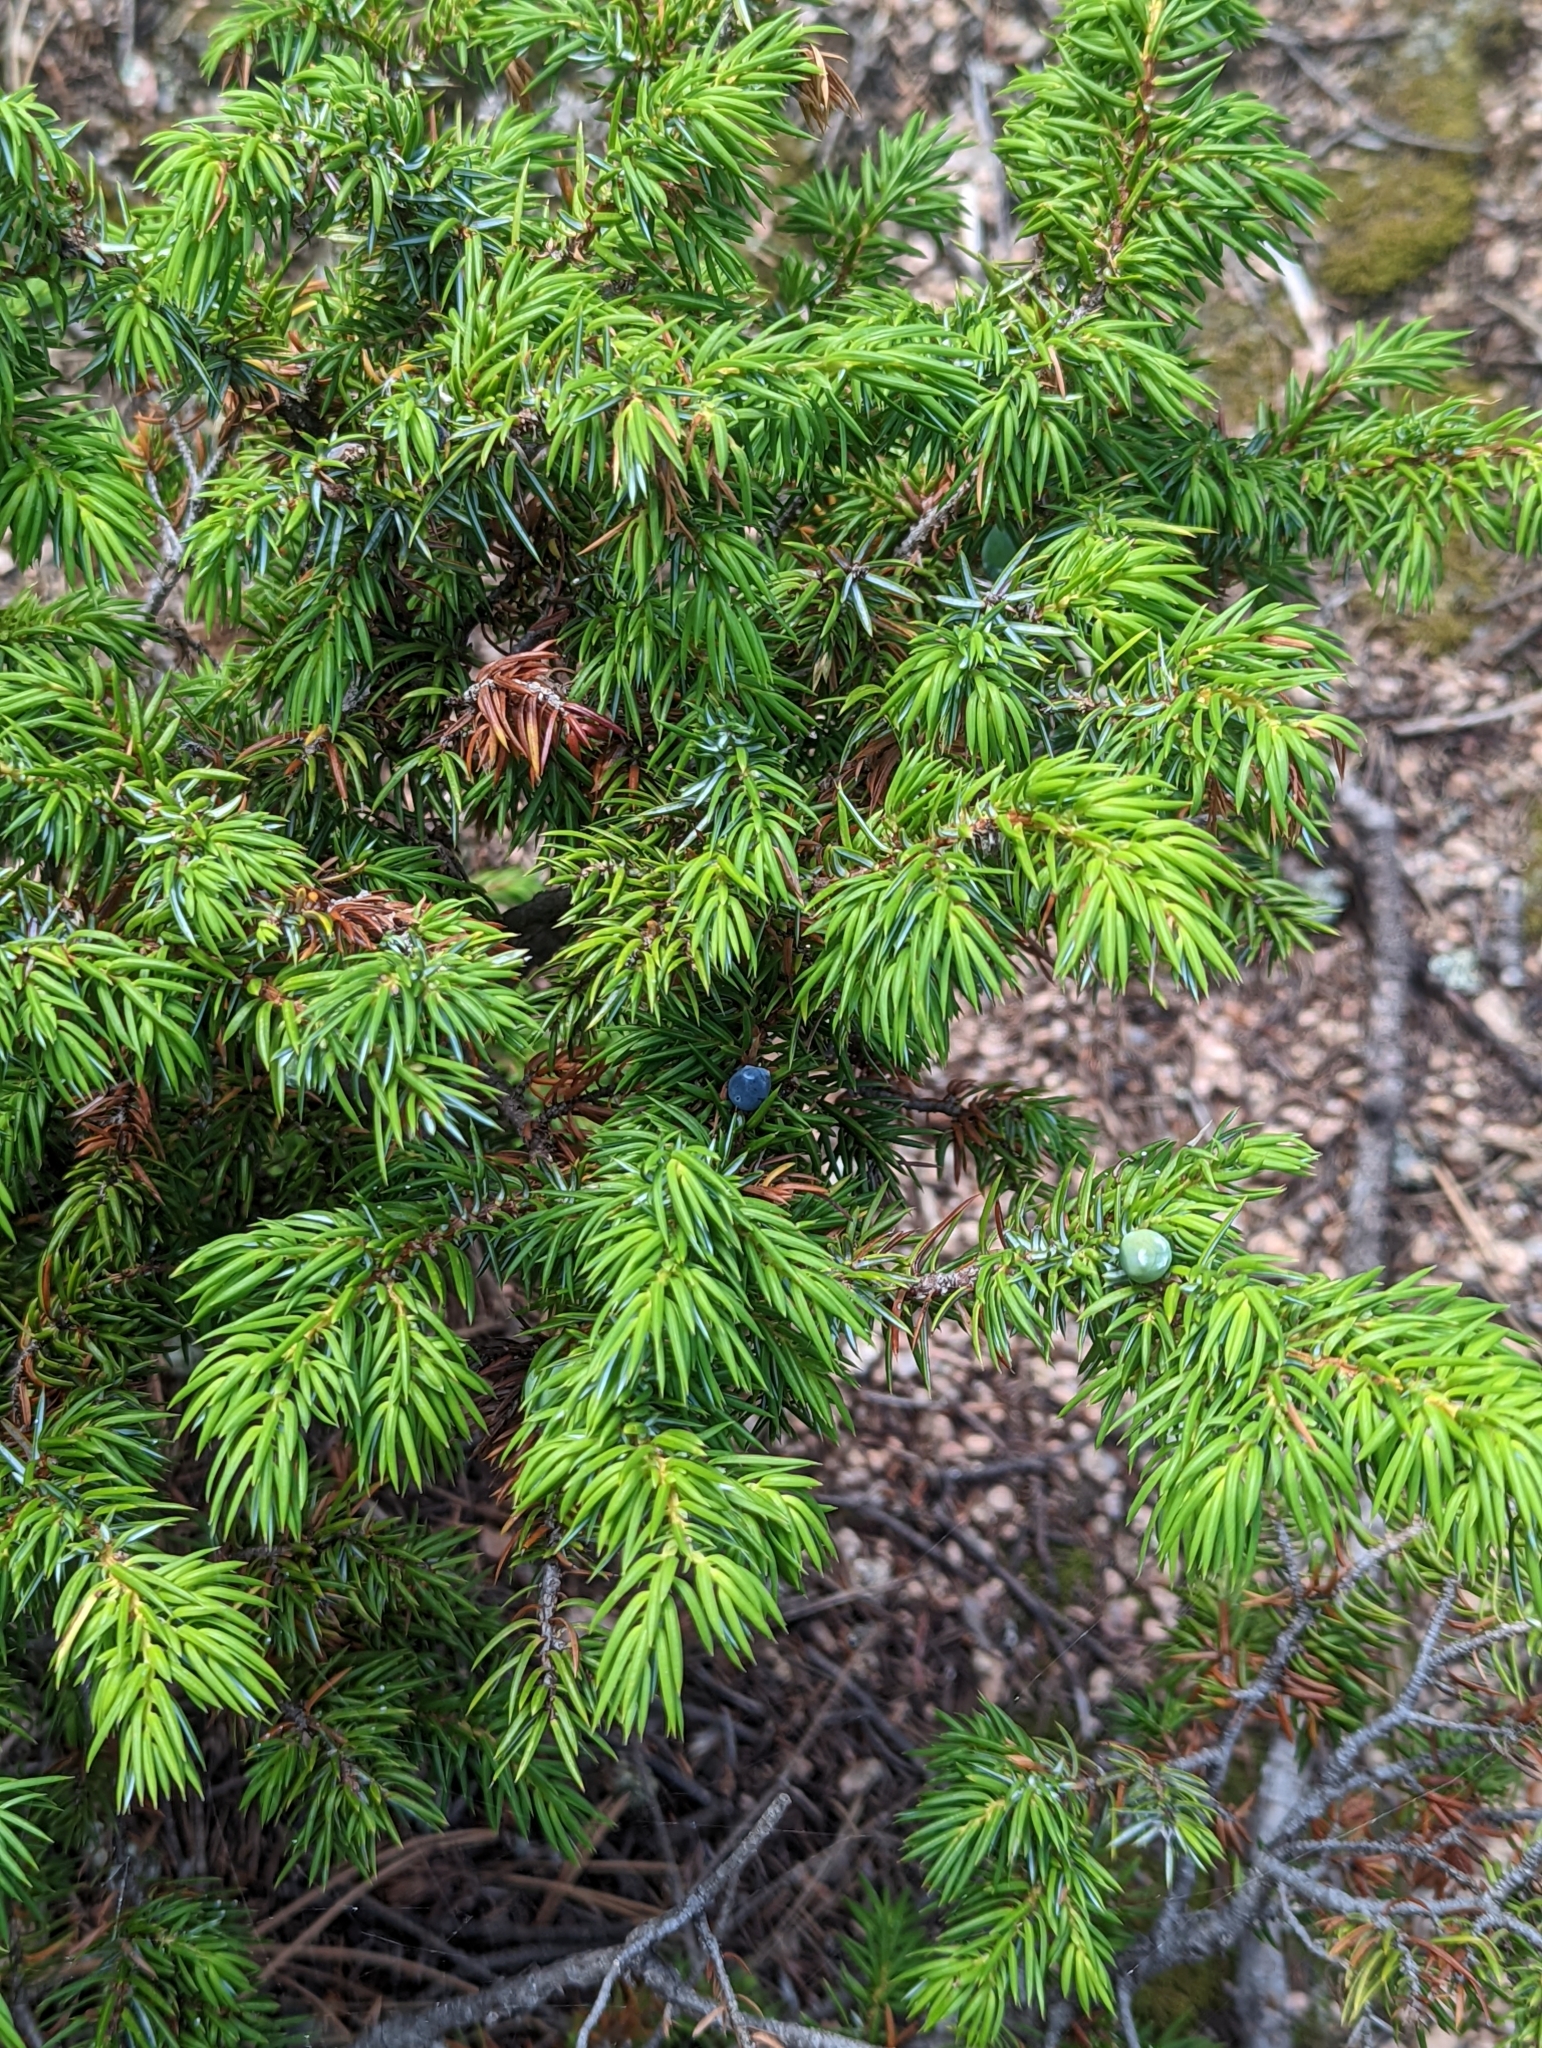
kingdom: Plantae
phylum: Tracheophyta
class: Pinopsida
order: Pinales
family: Cupressaceae
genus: Juniperus
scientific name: Juniperus communis
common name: Common juniper
